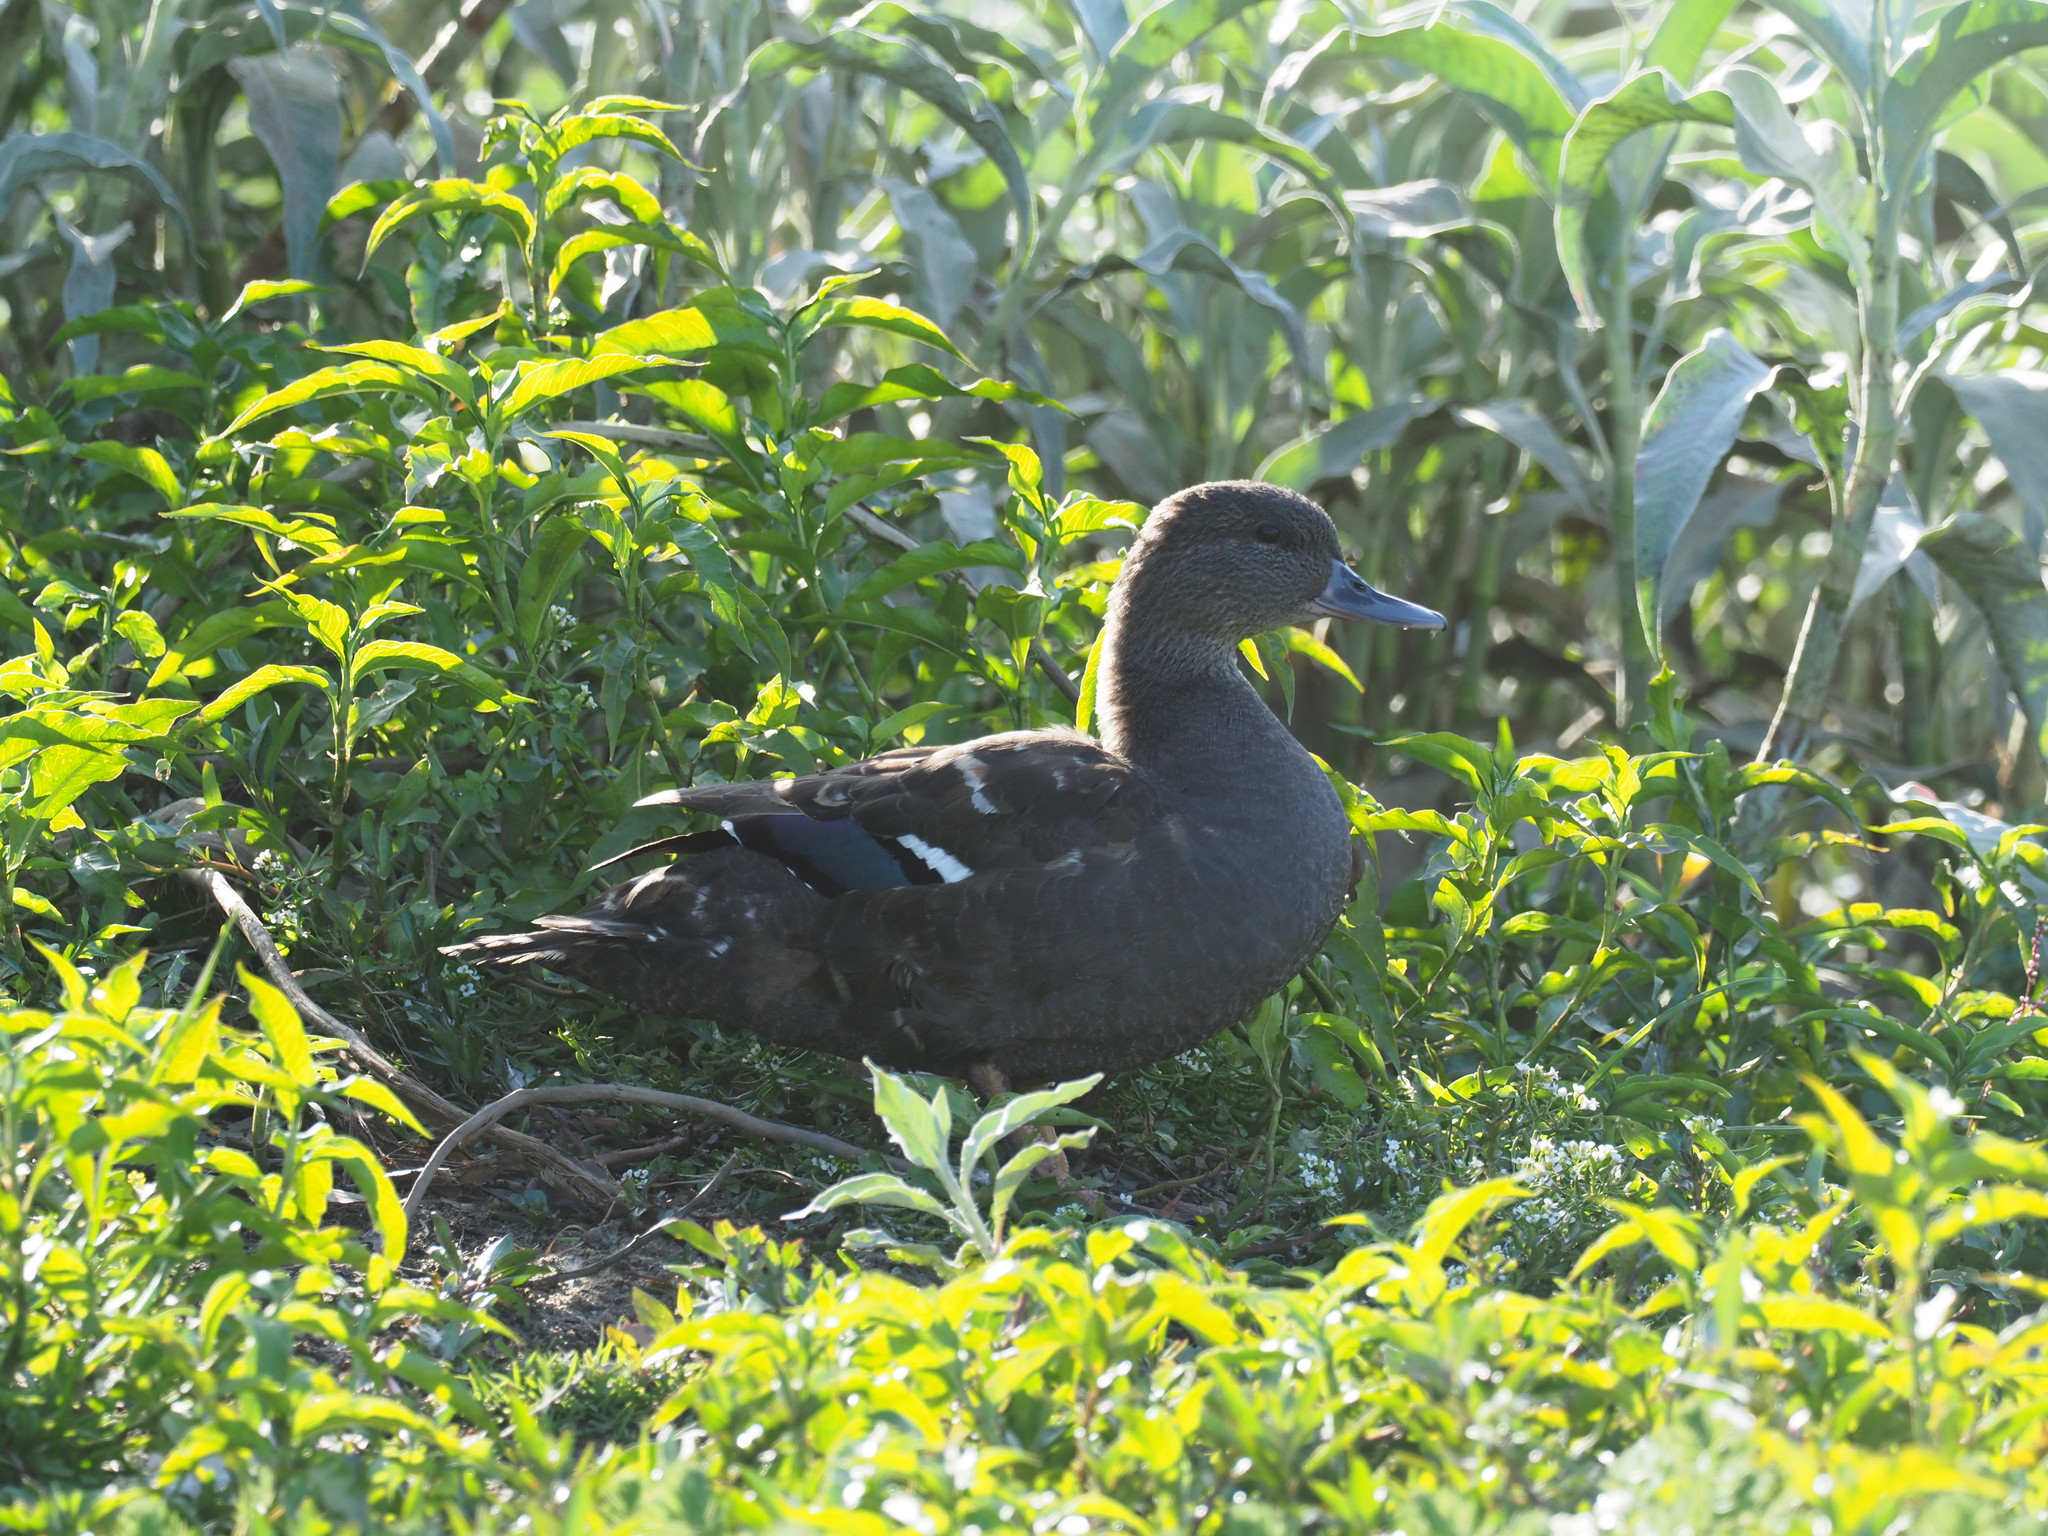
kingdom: Animalia
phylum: Chordata
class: Aves
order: Anseriformes
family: Anatidae
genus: Anas
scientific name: Anas sparsa
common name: African black duck
